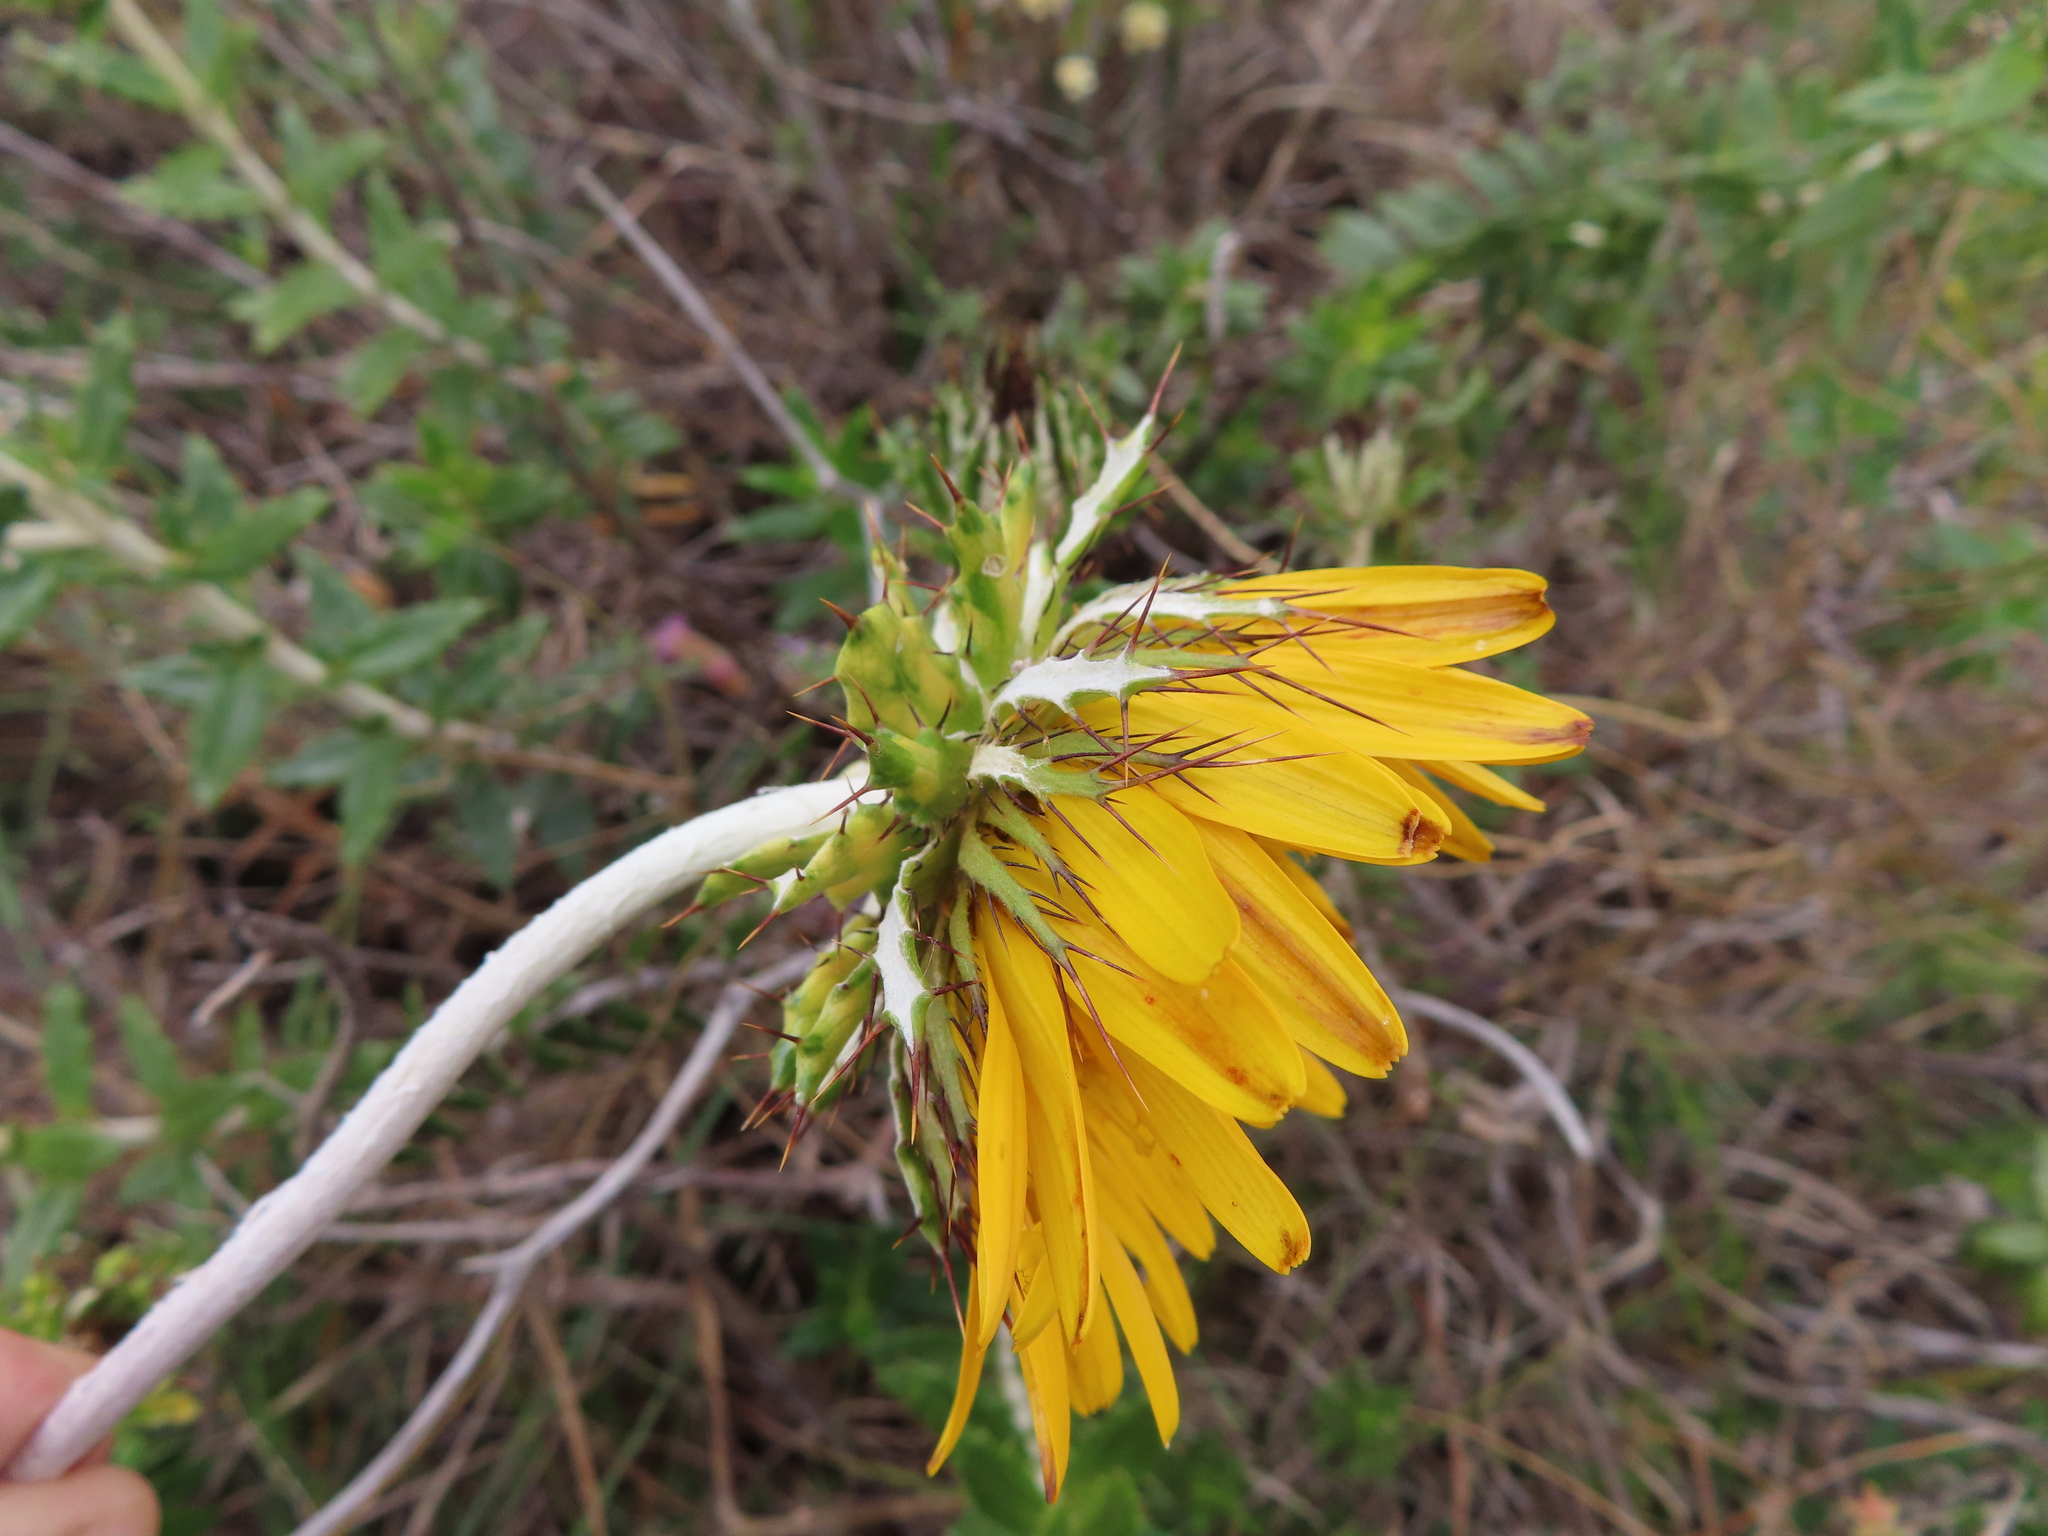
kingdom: Plantae
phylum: Tracheophyta
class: Magnoliopsida
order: Asterales
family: Asteraceae
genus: Berkheya
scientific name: Berkheya barbata
